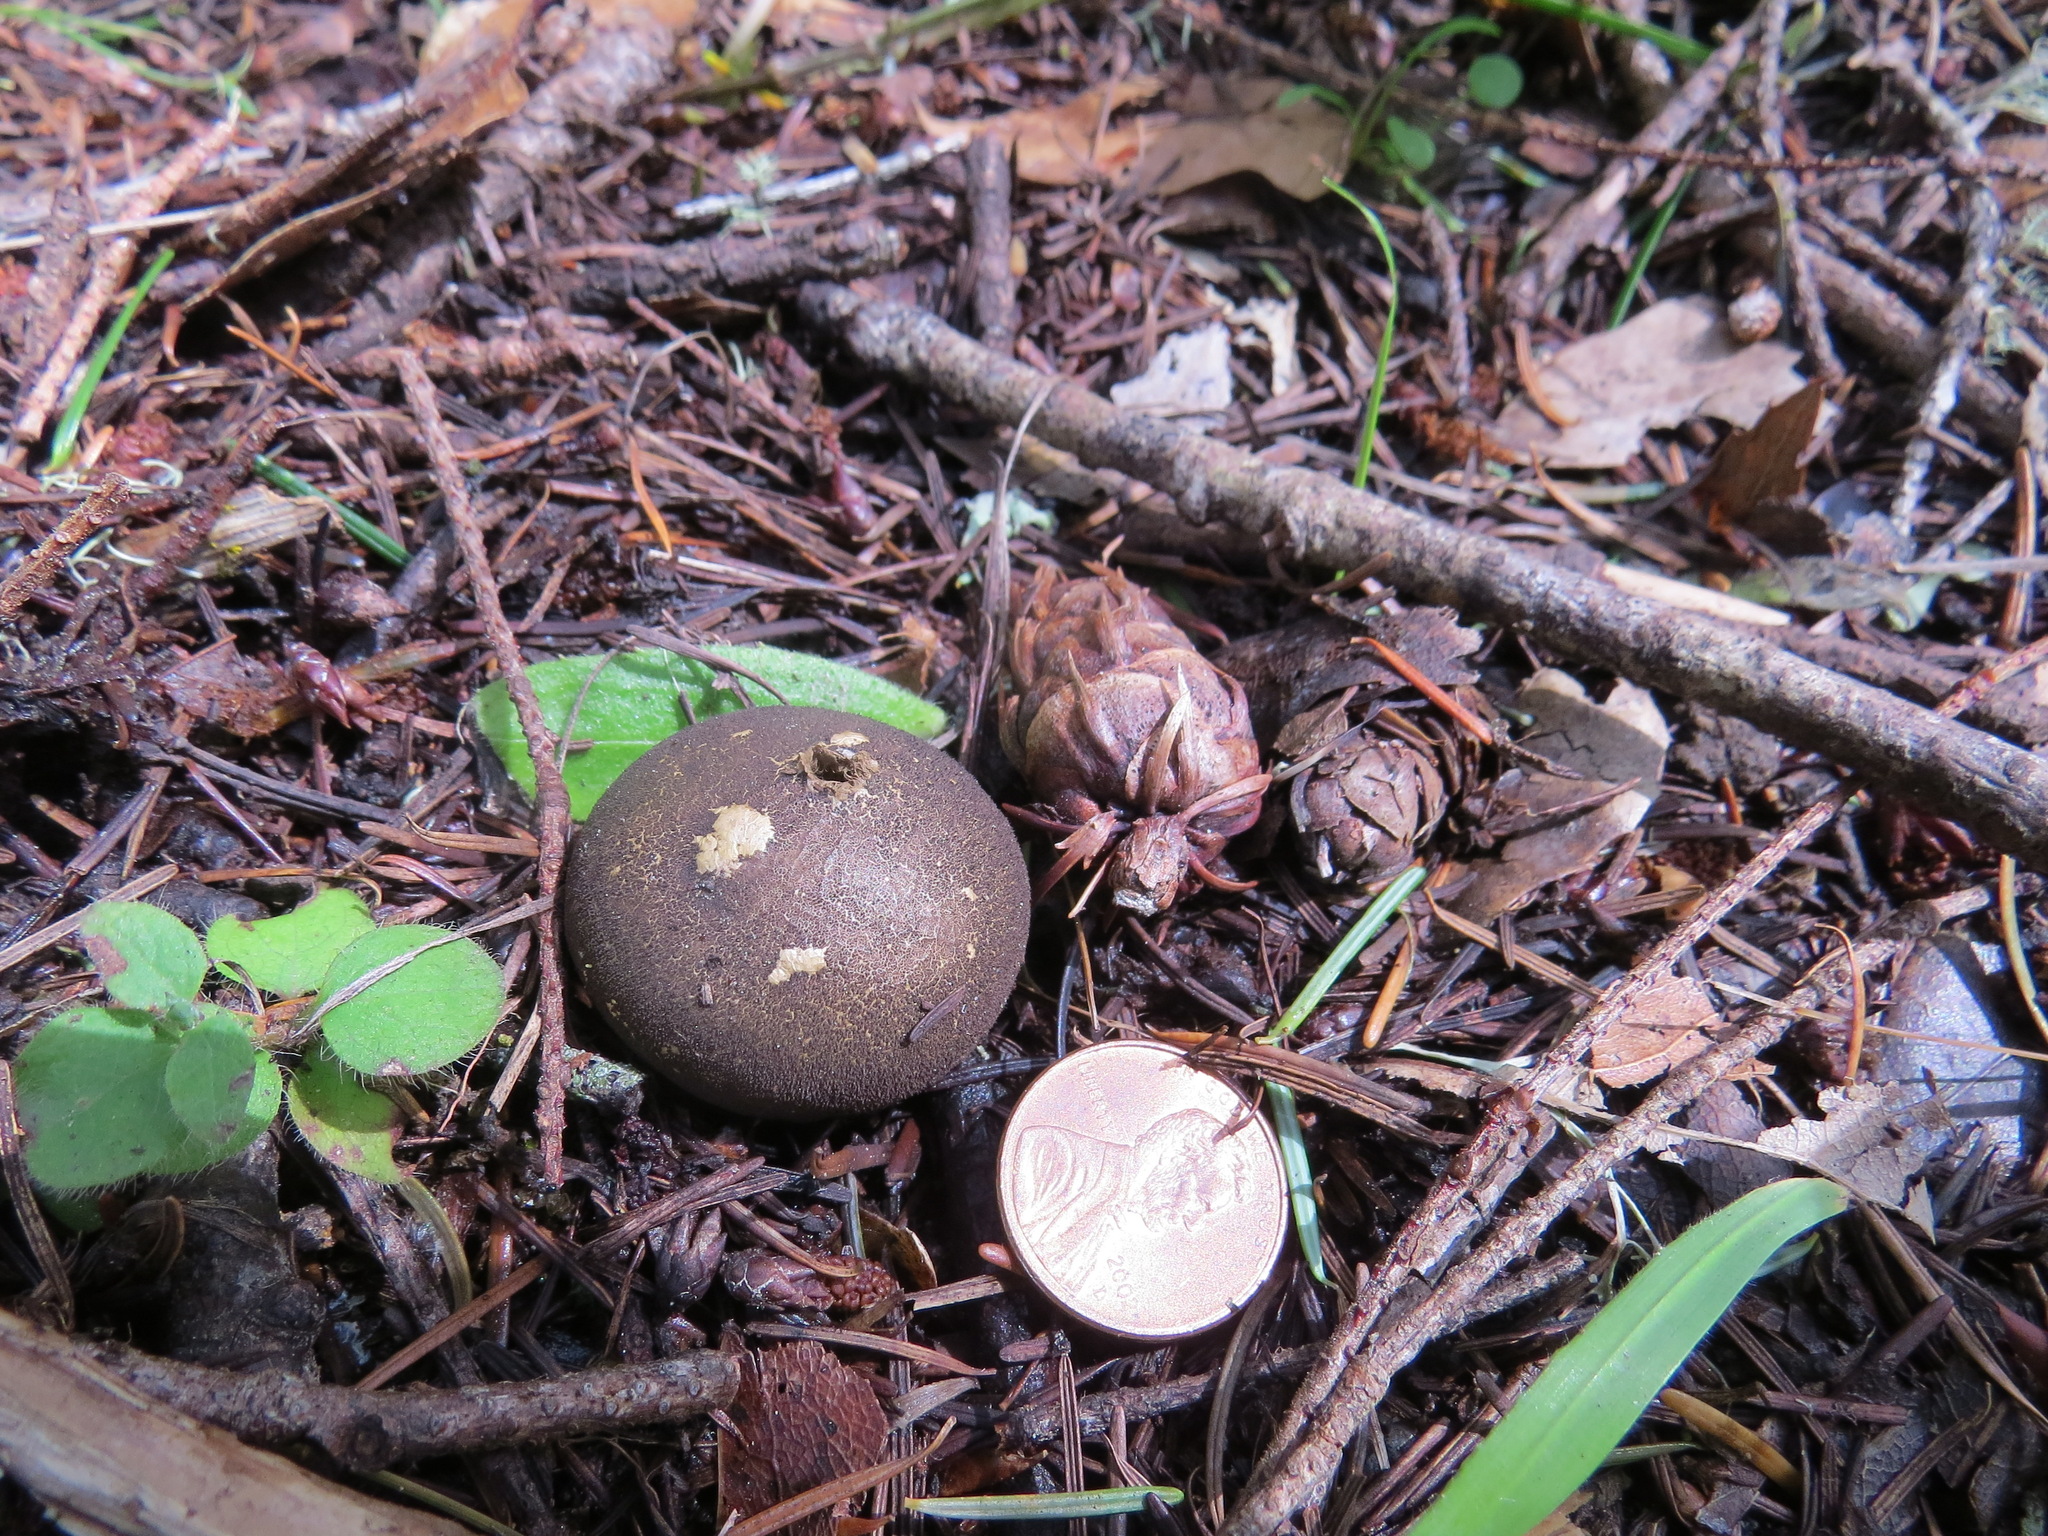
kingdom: Fungi
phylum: Basidiomycota
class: Agaricomycetes
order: Agaricales
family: Lycoperdaceae
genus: Lycoperdon
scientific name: Lycoperdon umbrinum
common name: Umber-brown puffball
